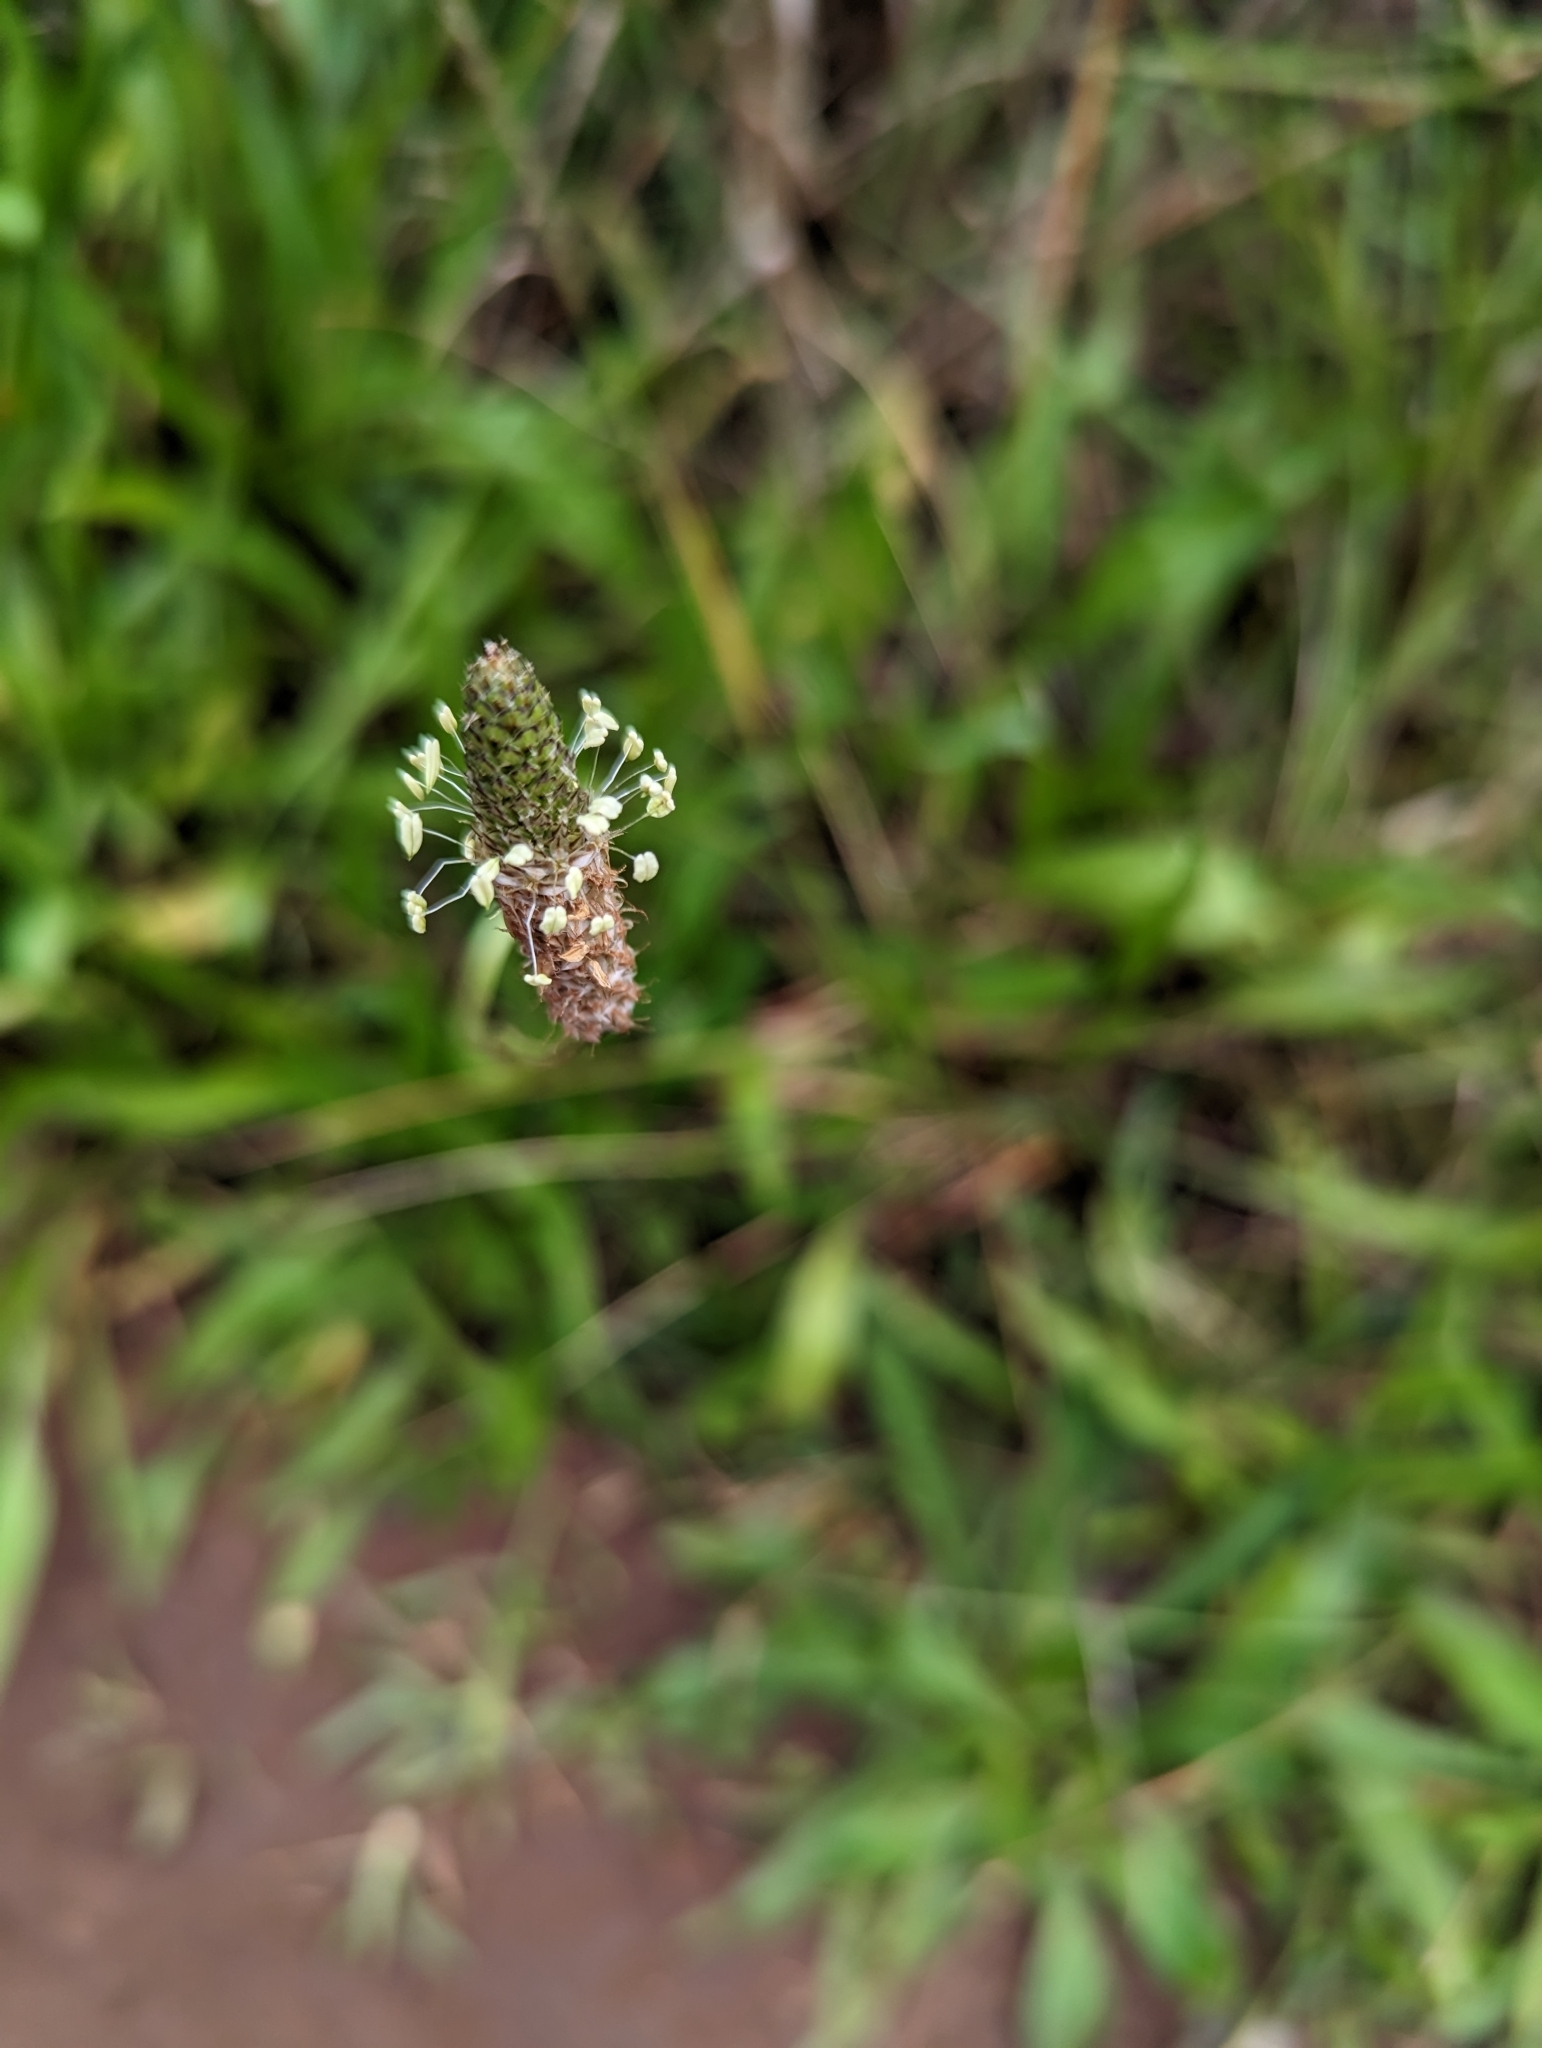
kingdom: Plantae
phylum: Tracheophyta
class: Magnoliopsida
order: Lamiales
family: Plantaginaceae
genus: Plantago
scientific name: Plantago lanceolata
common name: Ribwort plantain
